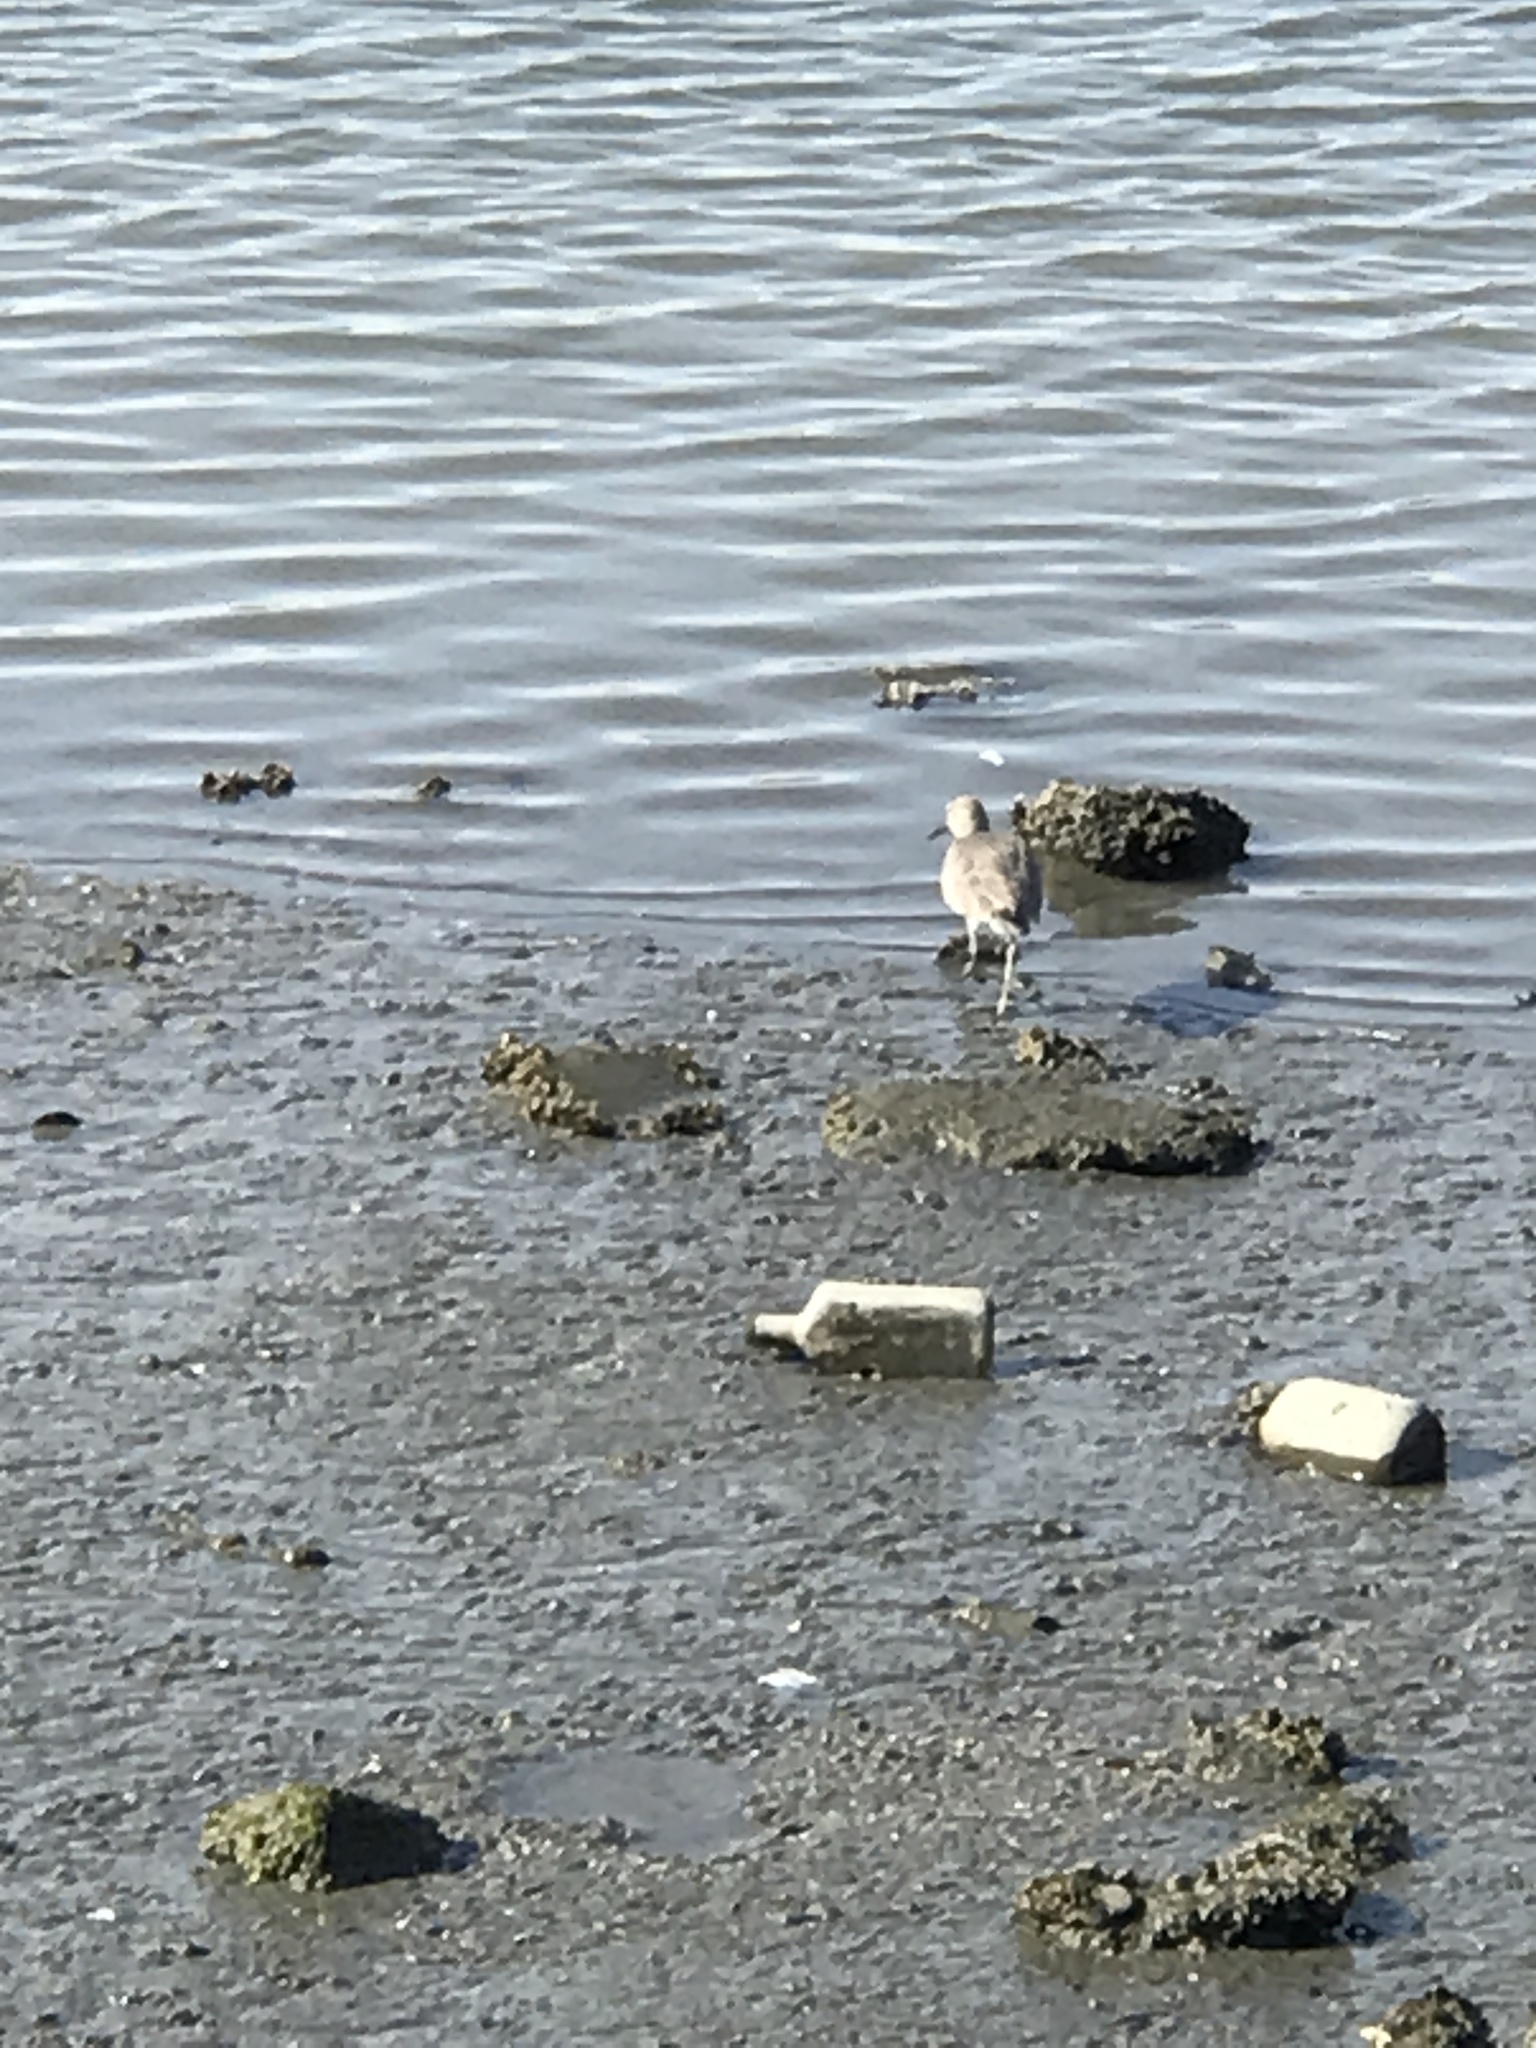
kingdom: Animalia
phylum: Chordata
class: Aves
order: Charadriiformes
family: Scolopacidae
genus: Tringa
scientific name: Tringa semipalmata
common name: Willet
